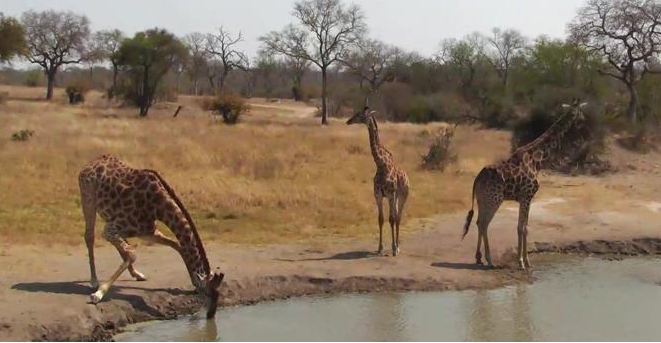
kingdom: Animalia
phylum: Chordata
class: Mammalia
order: Artiodactyla
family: Giraffidae
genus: Giraffa
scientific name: Giraffa giraffa
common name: Southern giraffe
